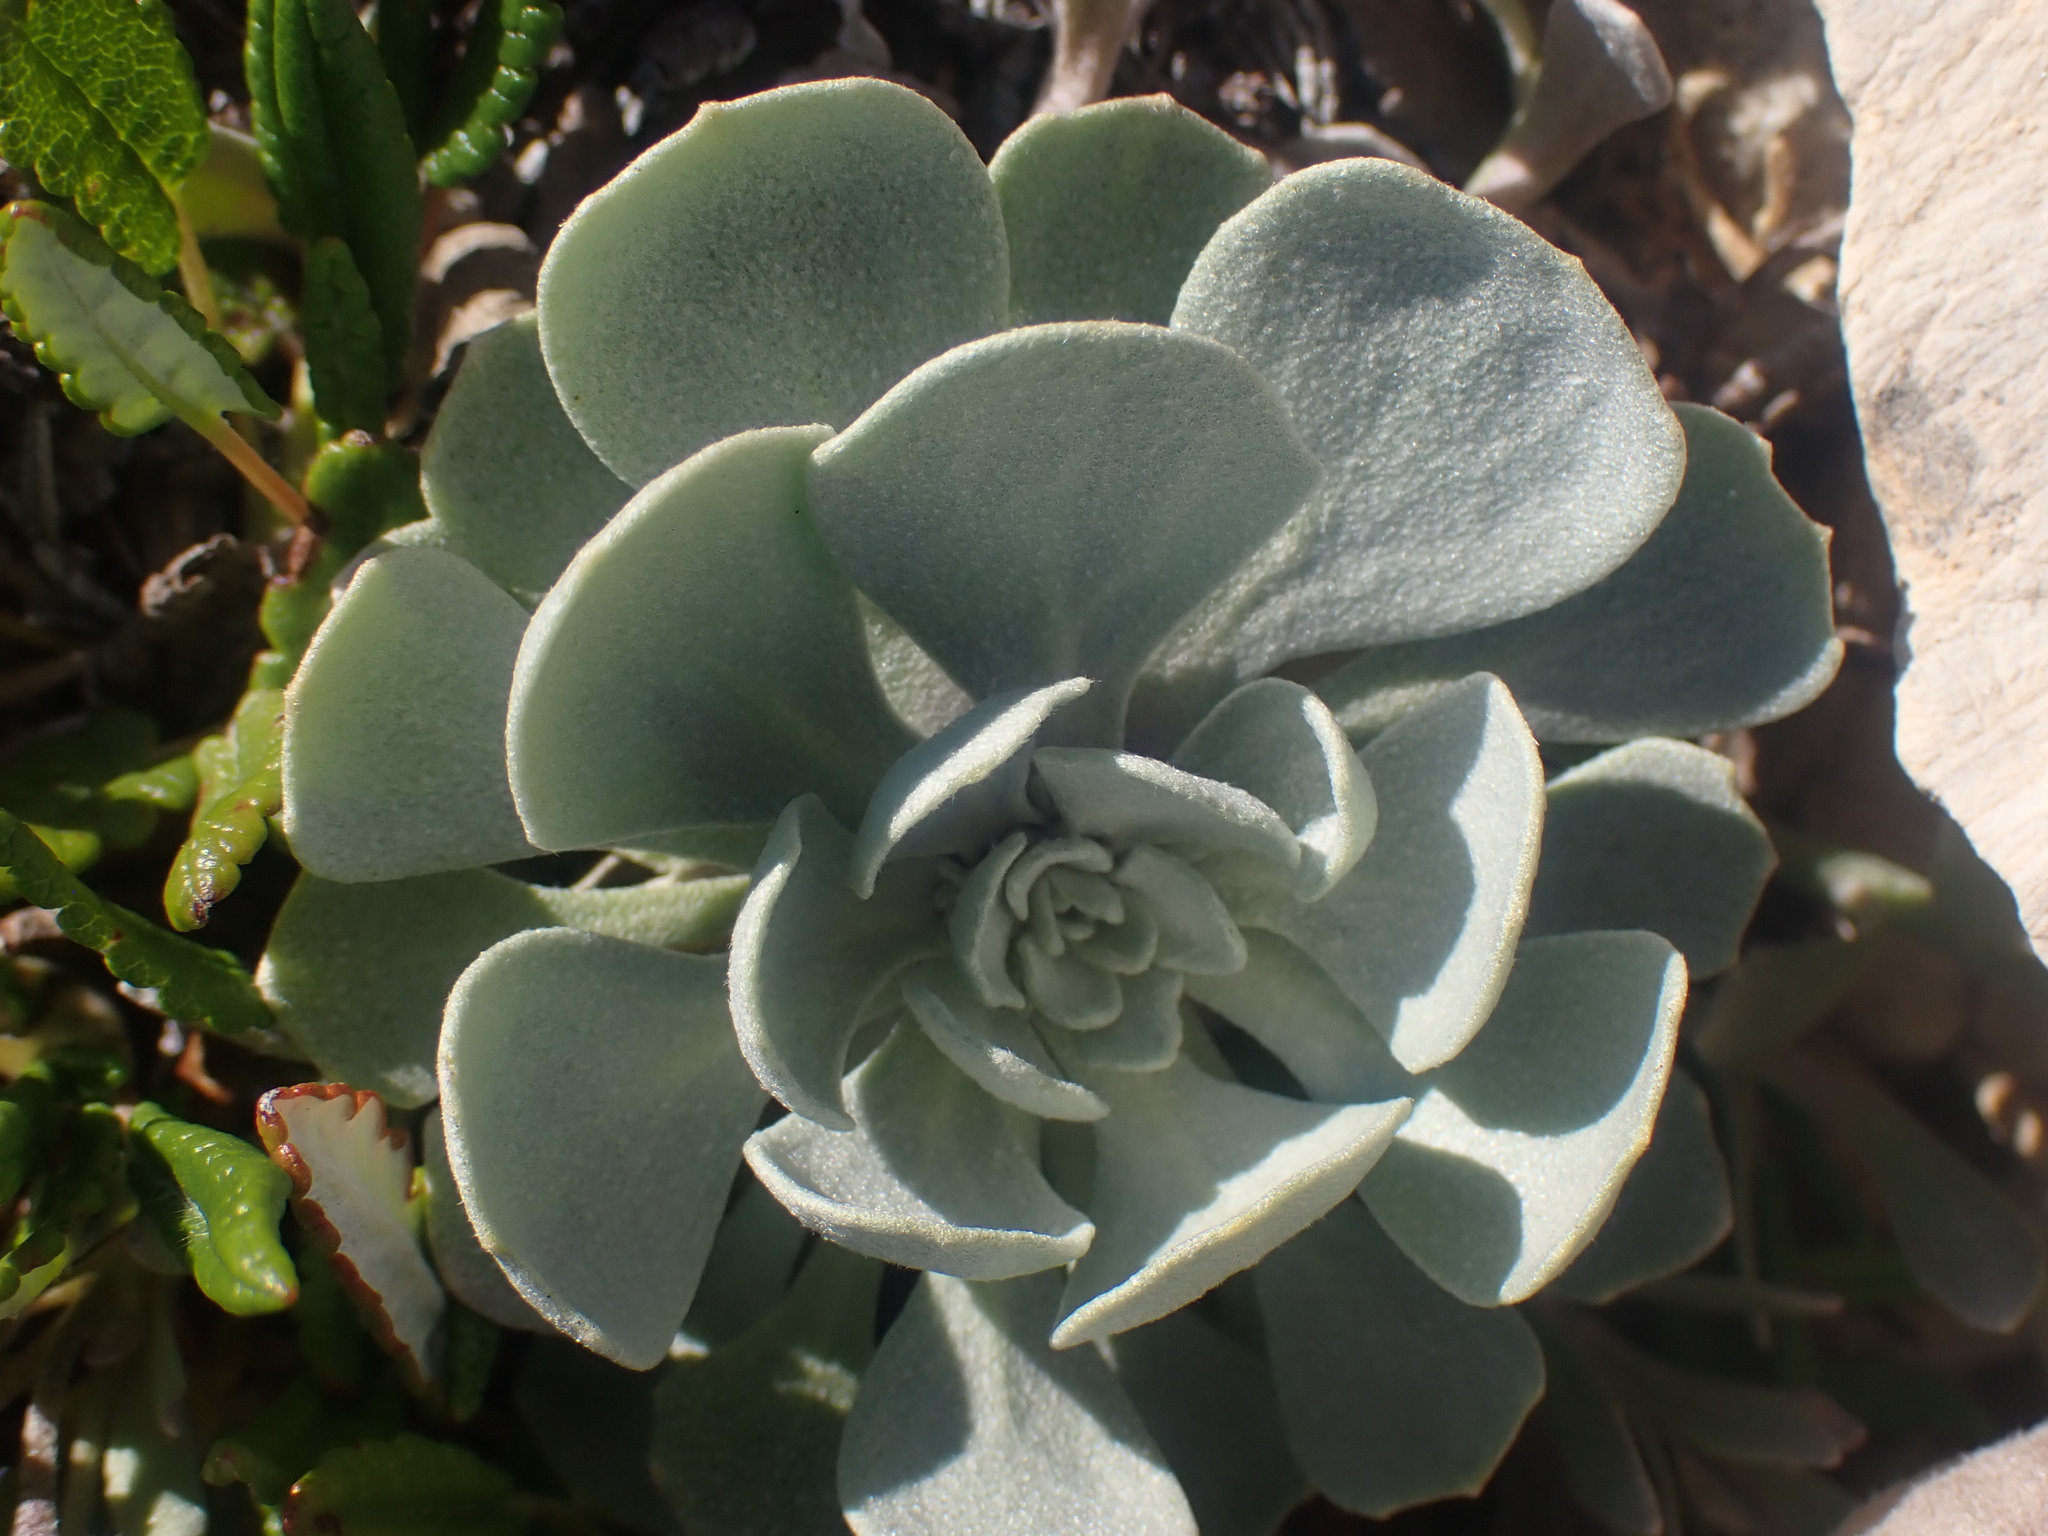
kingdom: Plantae
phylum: Tracheophyta
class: Magnoliopsida
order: Brassicales
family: Brassicaceae
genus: Physaria
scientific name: Physaria didymocarpa
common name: Common twinpod
